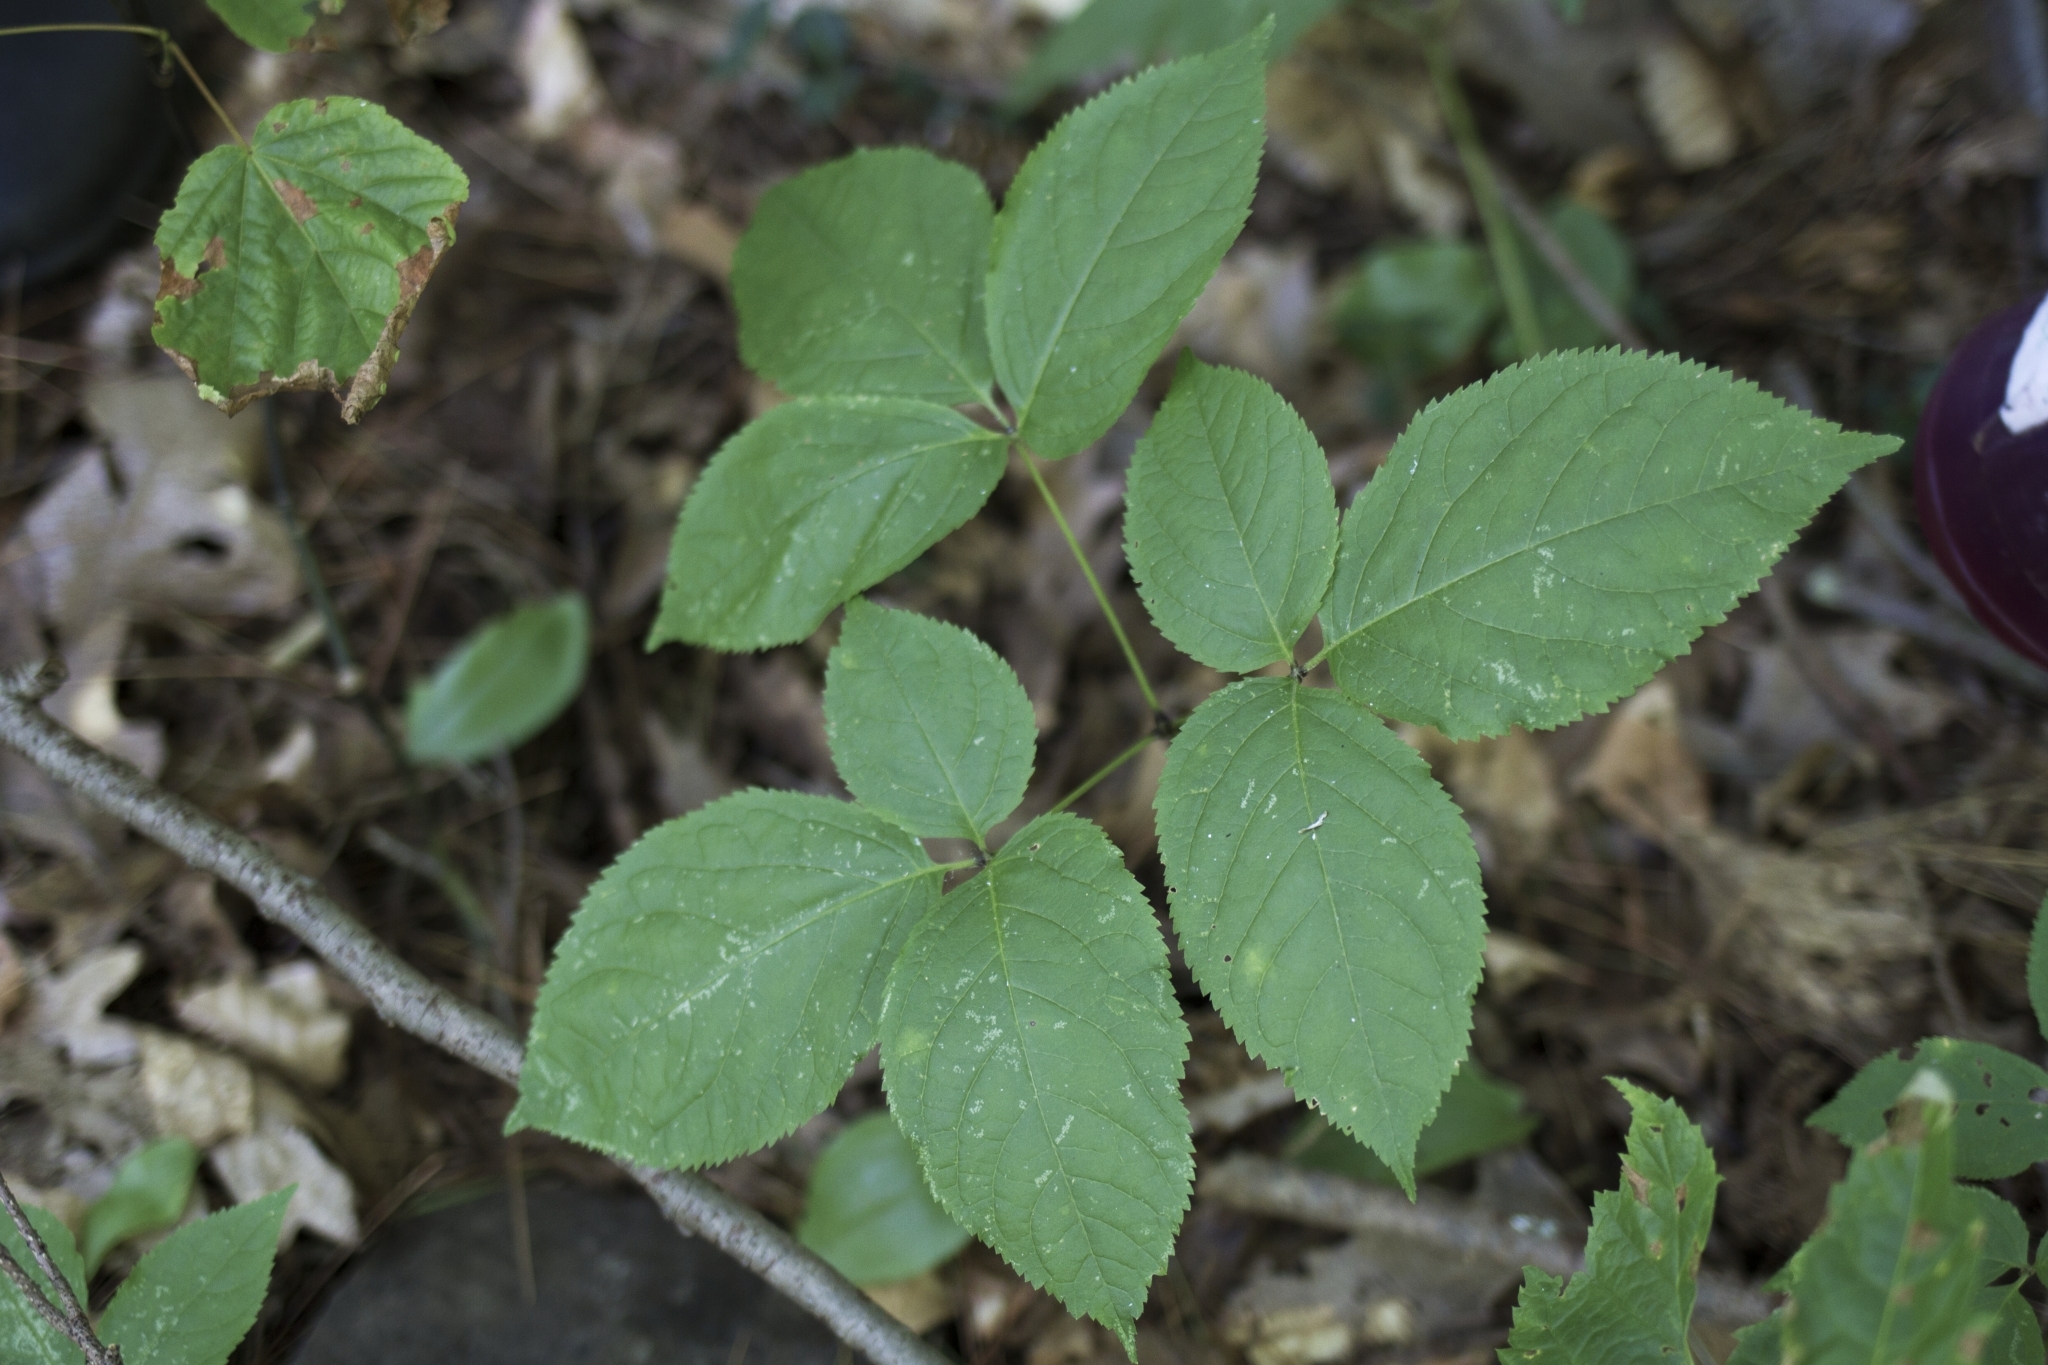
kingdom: Plantae
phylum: Tracheophyta
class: Magnoliopsida
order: Apiales
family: Araliaceae
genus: Aralia
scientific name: Aralia nudicaulis
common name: Wild sarsaparilla
